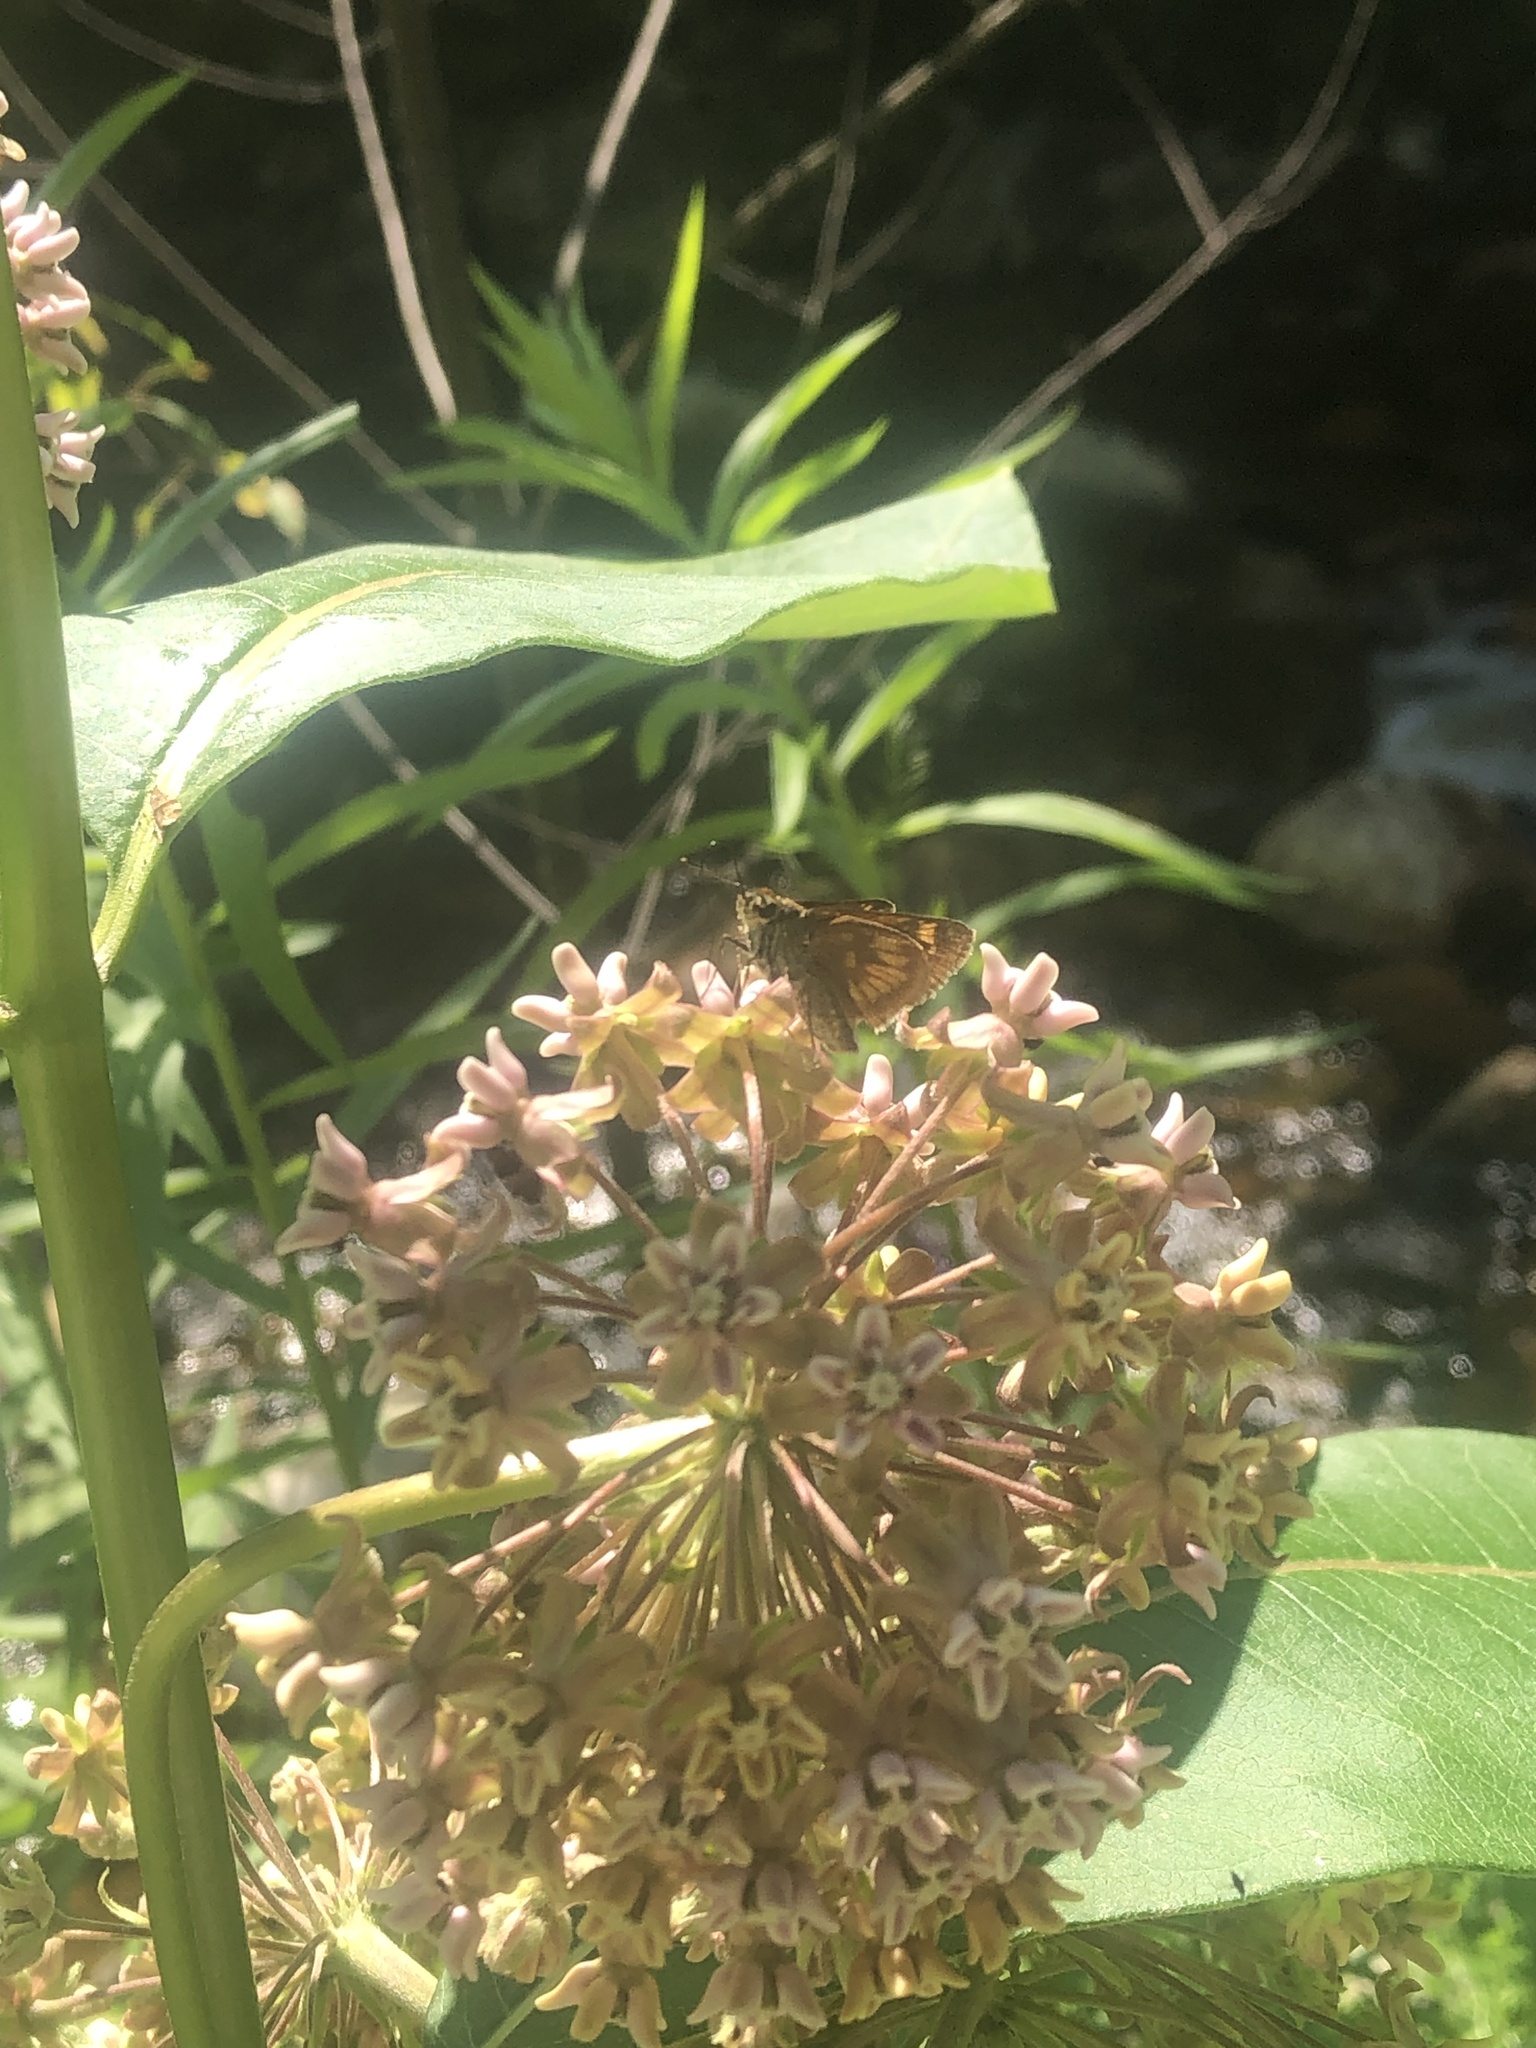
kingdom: Animalia
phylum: Arthropoda
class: Insecta
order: Lepidoptera
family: Hesperiidae
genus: Polites
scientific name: Polites mystic
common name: Long dash
